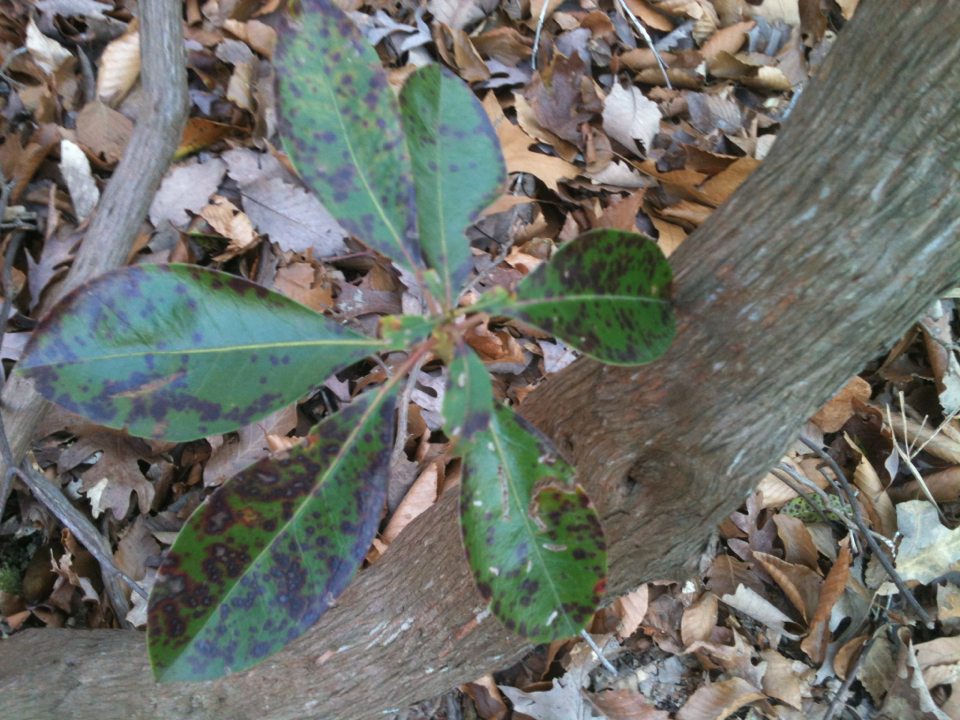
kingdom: Plantae
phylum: Tracheophyta
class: Magnoliopsida
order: Ericales
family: Ericaceae
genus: Kalmia
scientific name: Kalmia latifolia
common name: Mountain-laurel
